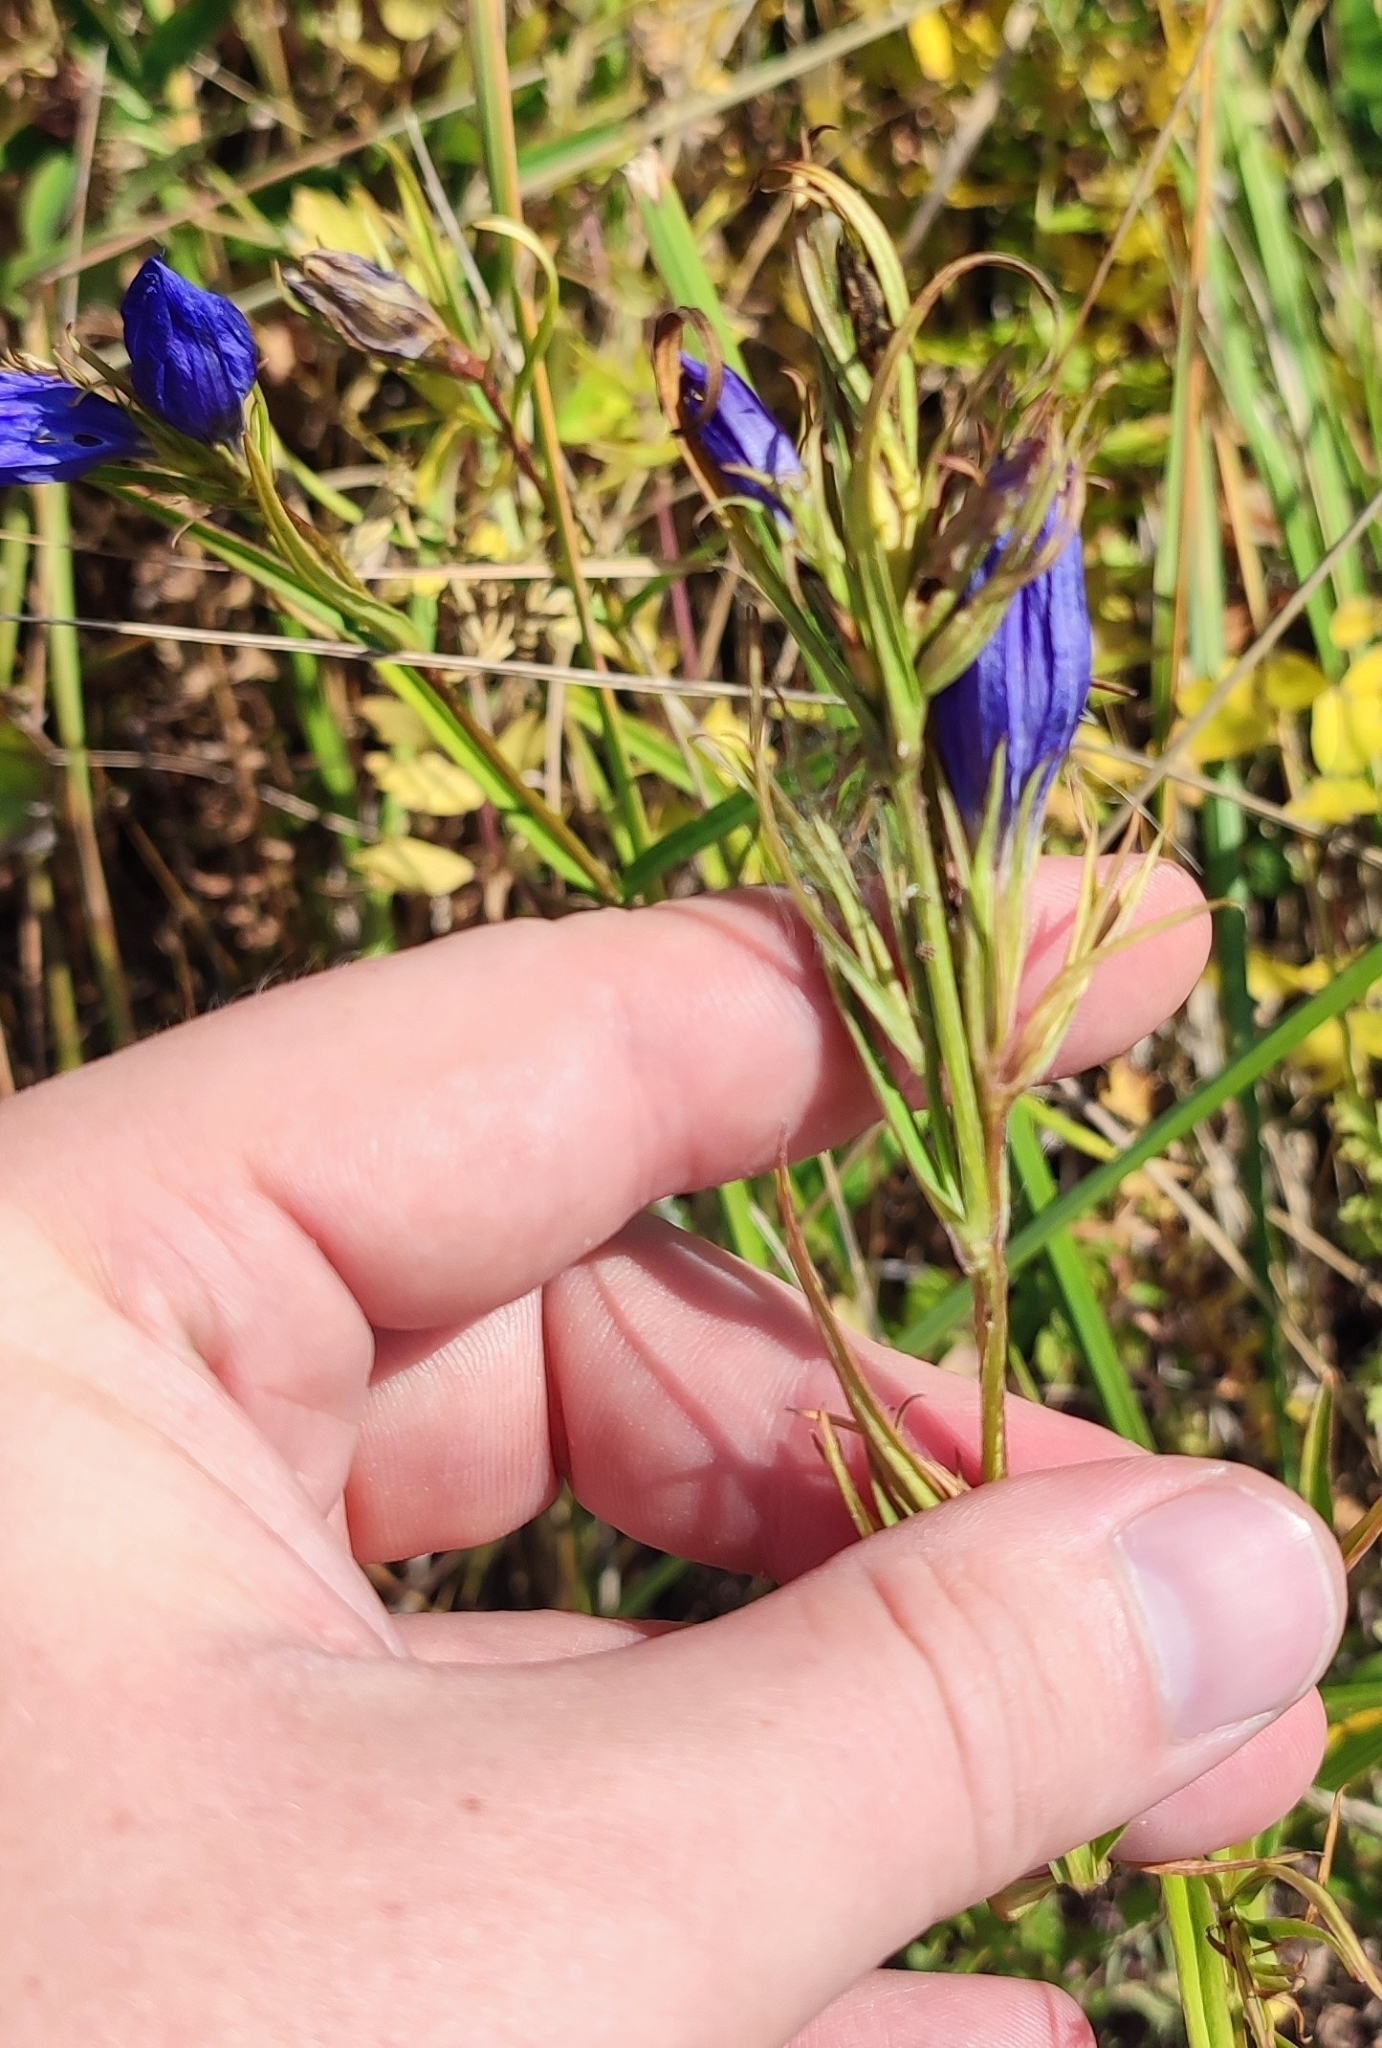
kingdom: Plantae
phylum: Tracheophyta
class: Magnoliopsida
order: Gentianales
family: Gentianaceae
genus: Gentiana
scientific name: Gentiana pneumonanthe
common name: Marsh gentian
